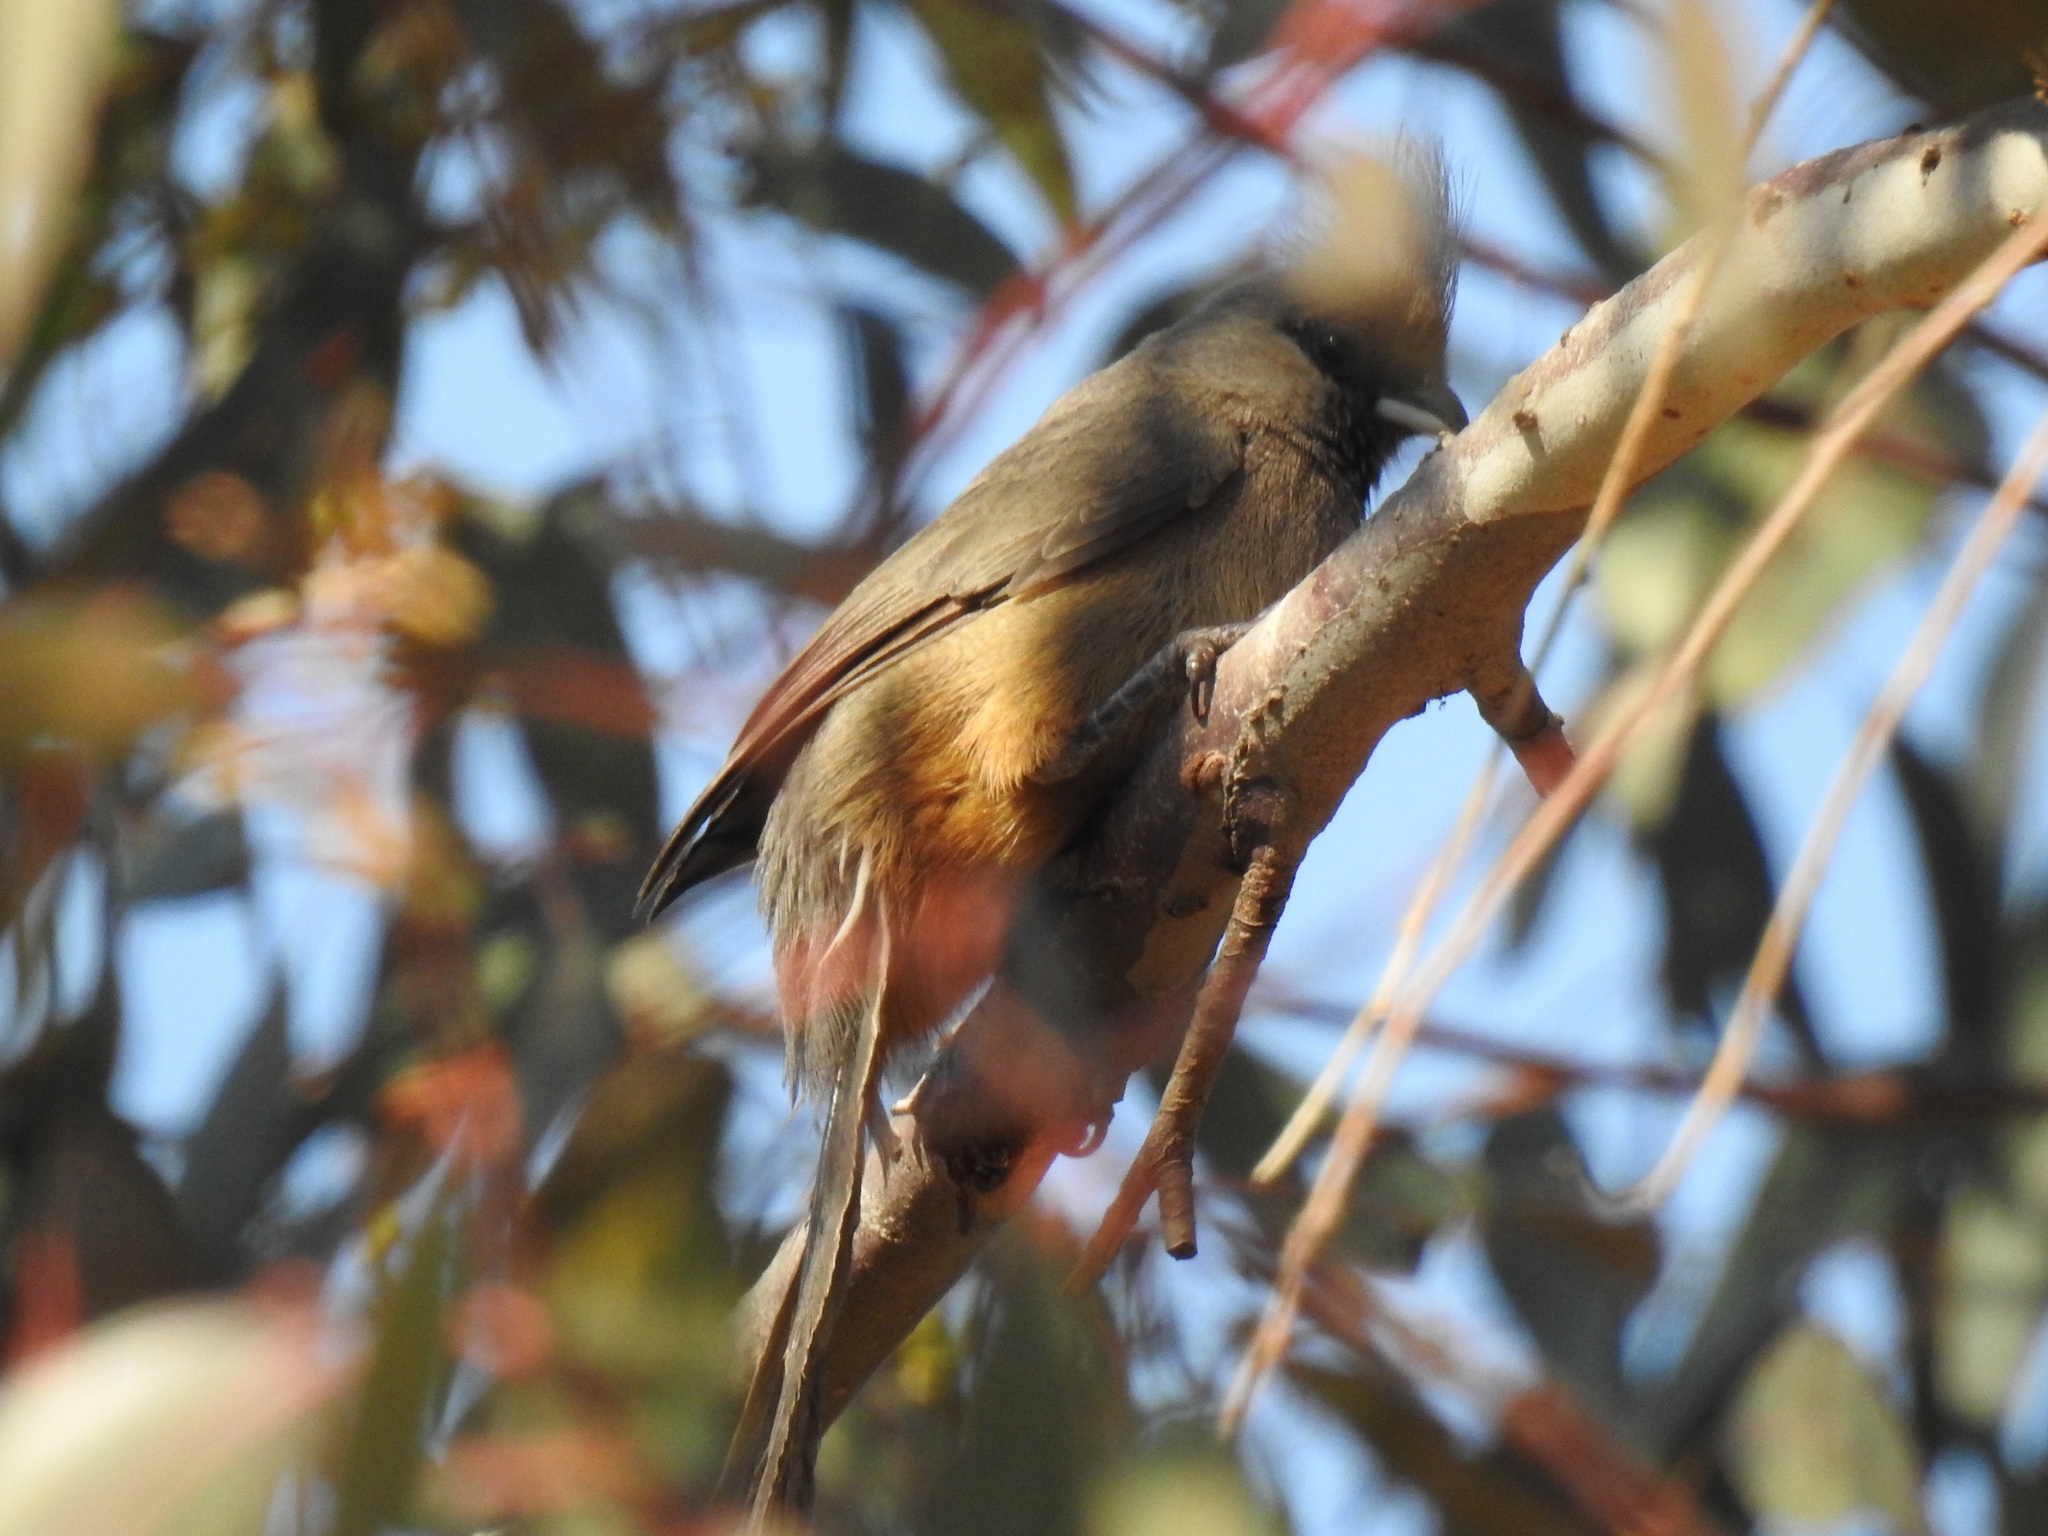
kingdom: Animalia
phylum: Chordata
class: Aves
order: Coliiformes
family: Coliidae
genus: Colius
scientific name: Colius striatus
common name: Speckled mousebird
